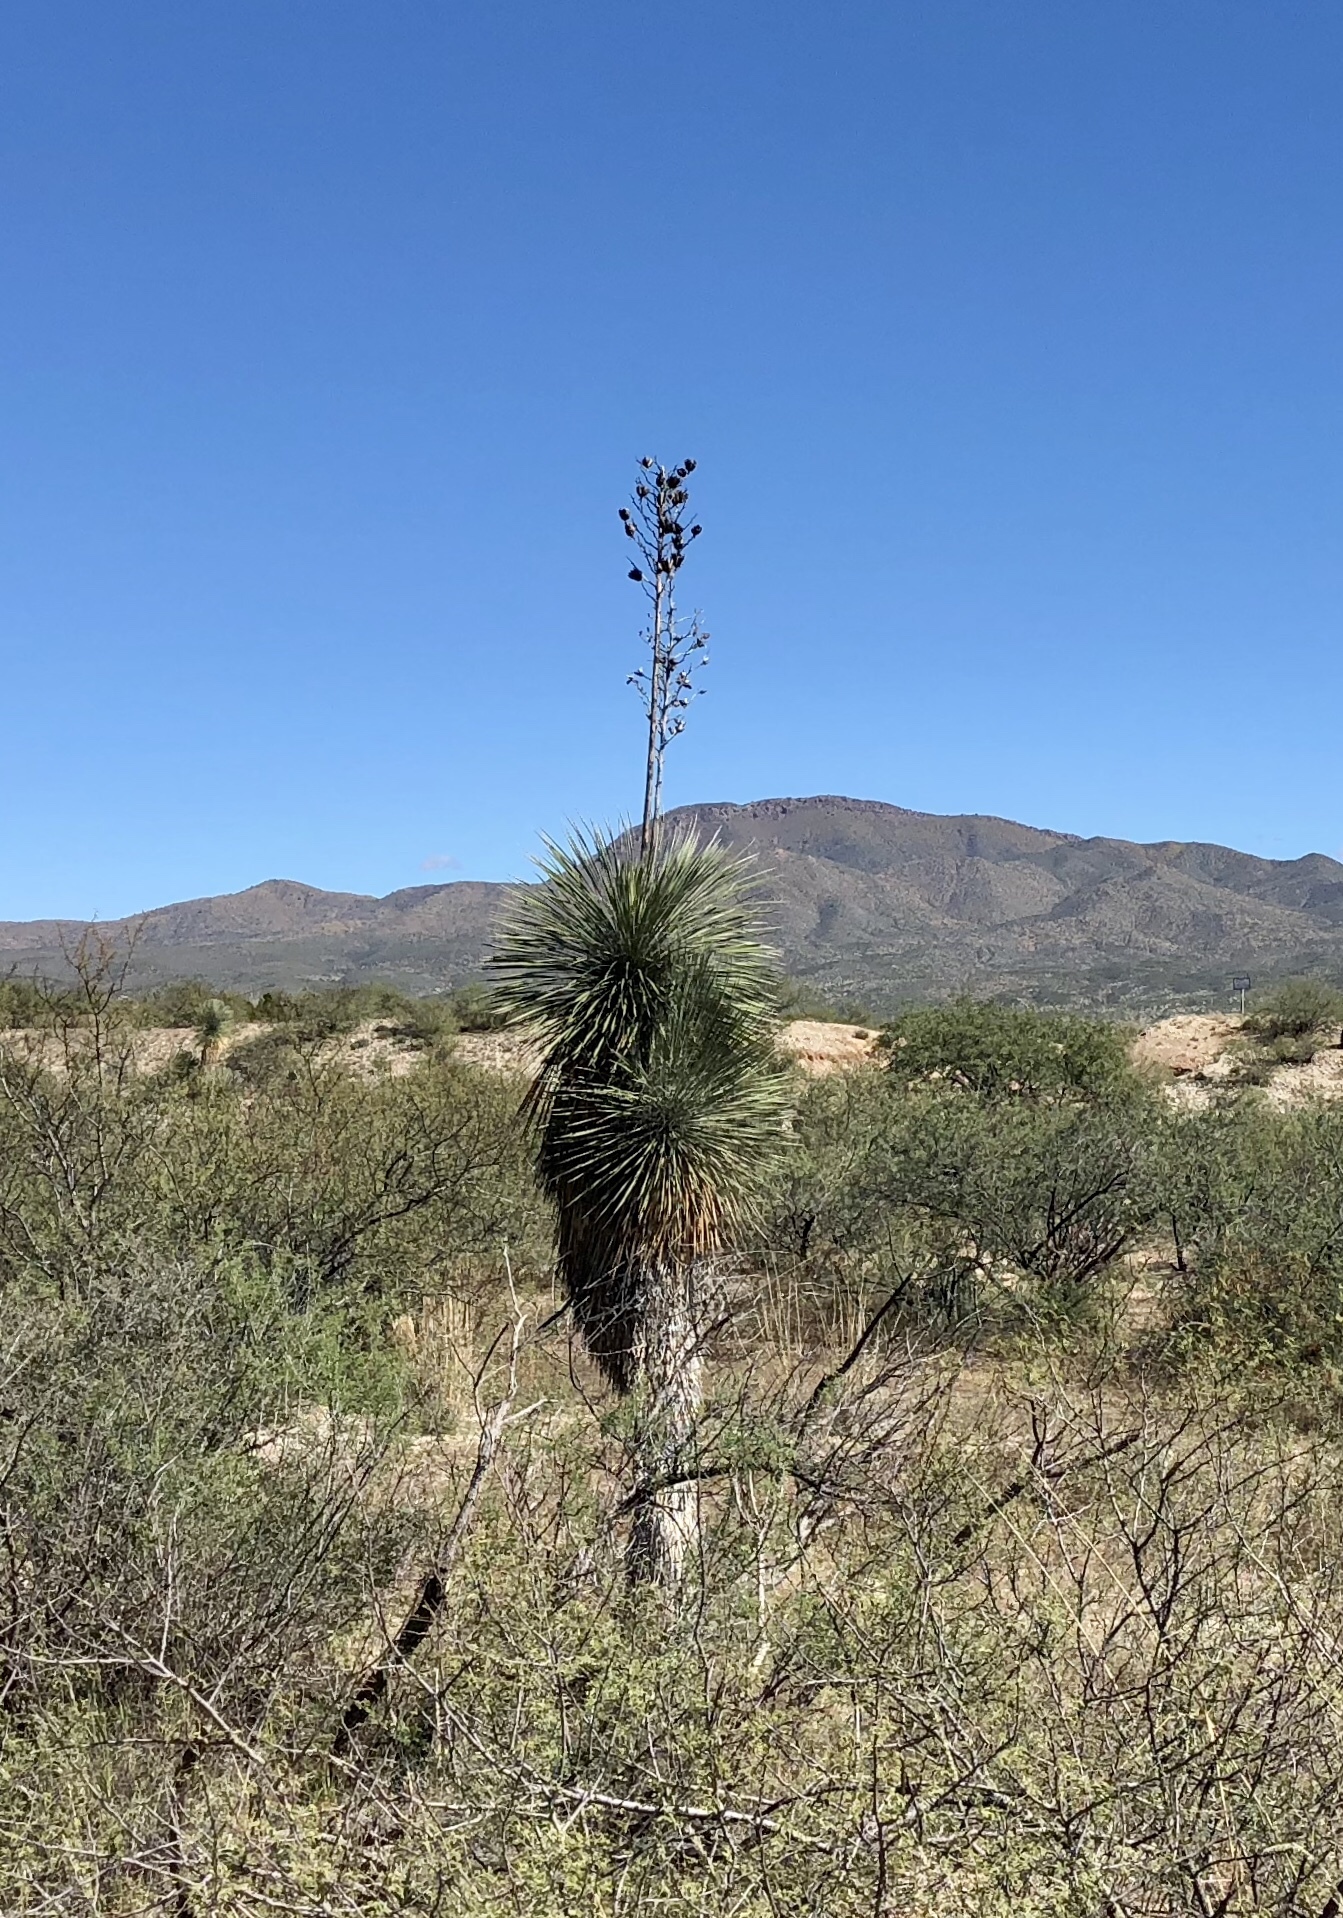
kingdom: Plantae
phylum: Tracheophyta
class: Liliopsida
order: Asparagales
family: Asparagaceae
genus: Yucca
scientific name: Yucca elata
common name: Palmella
